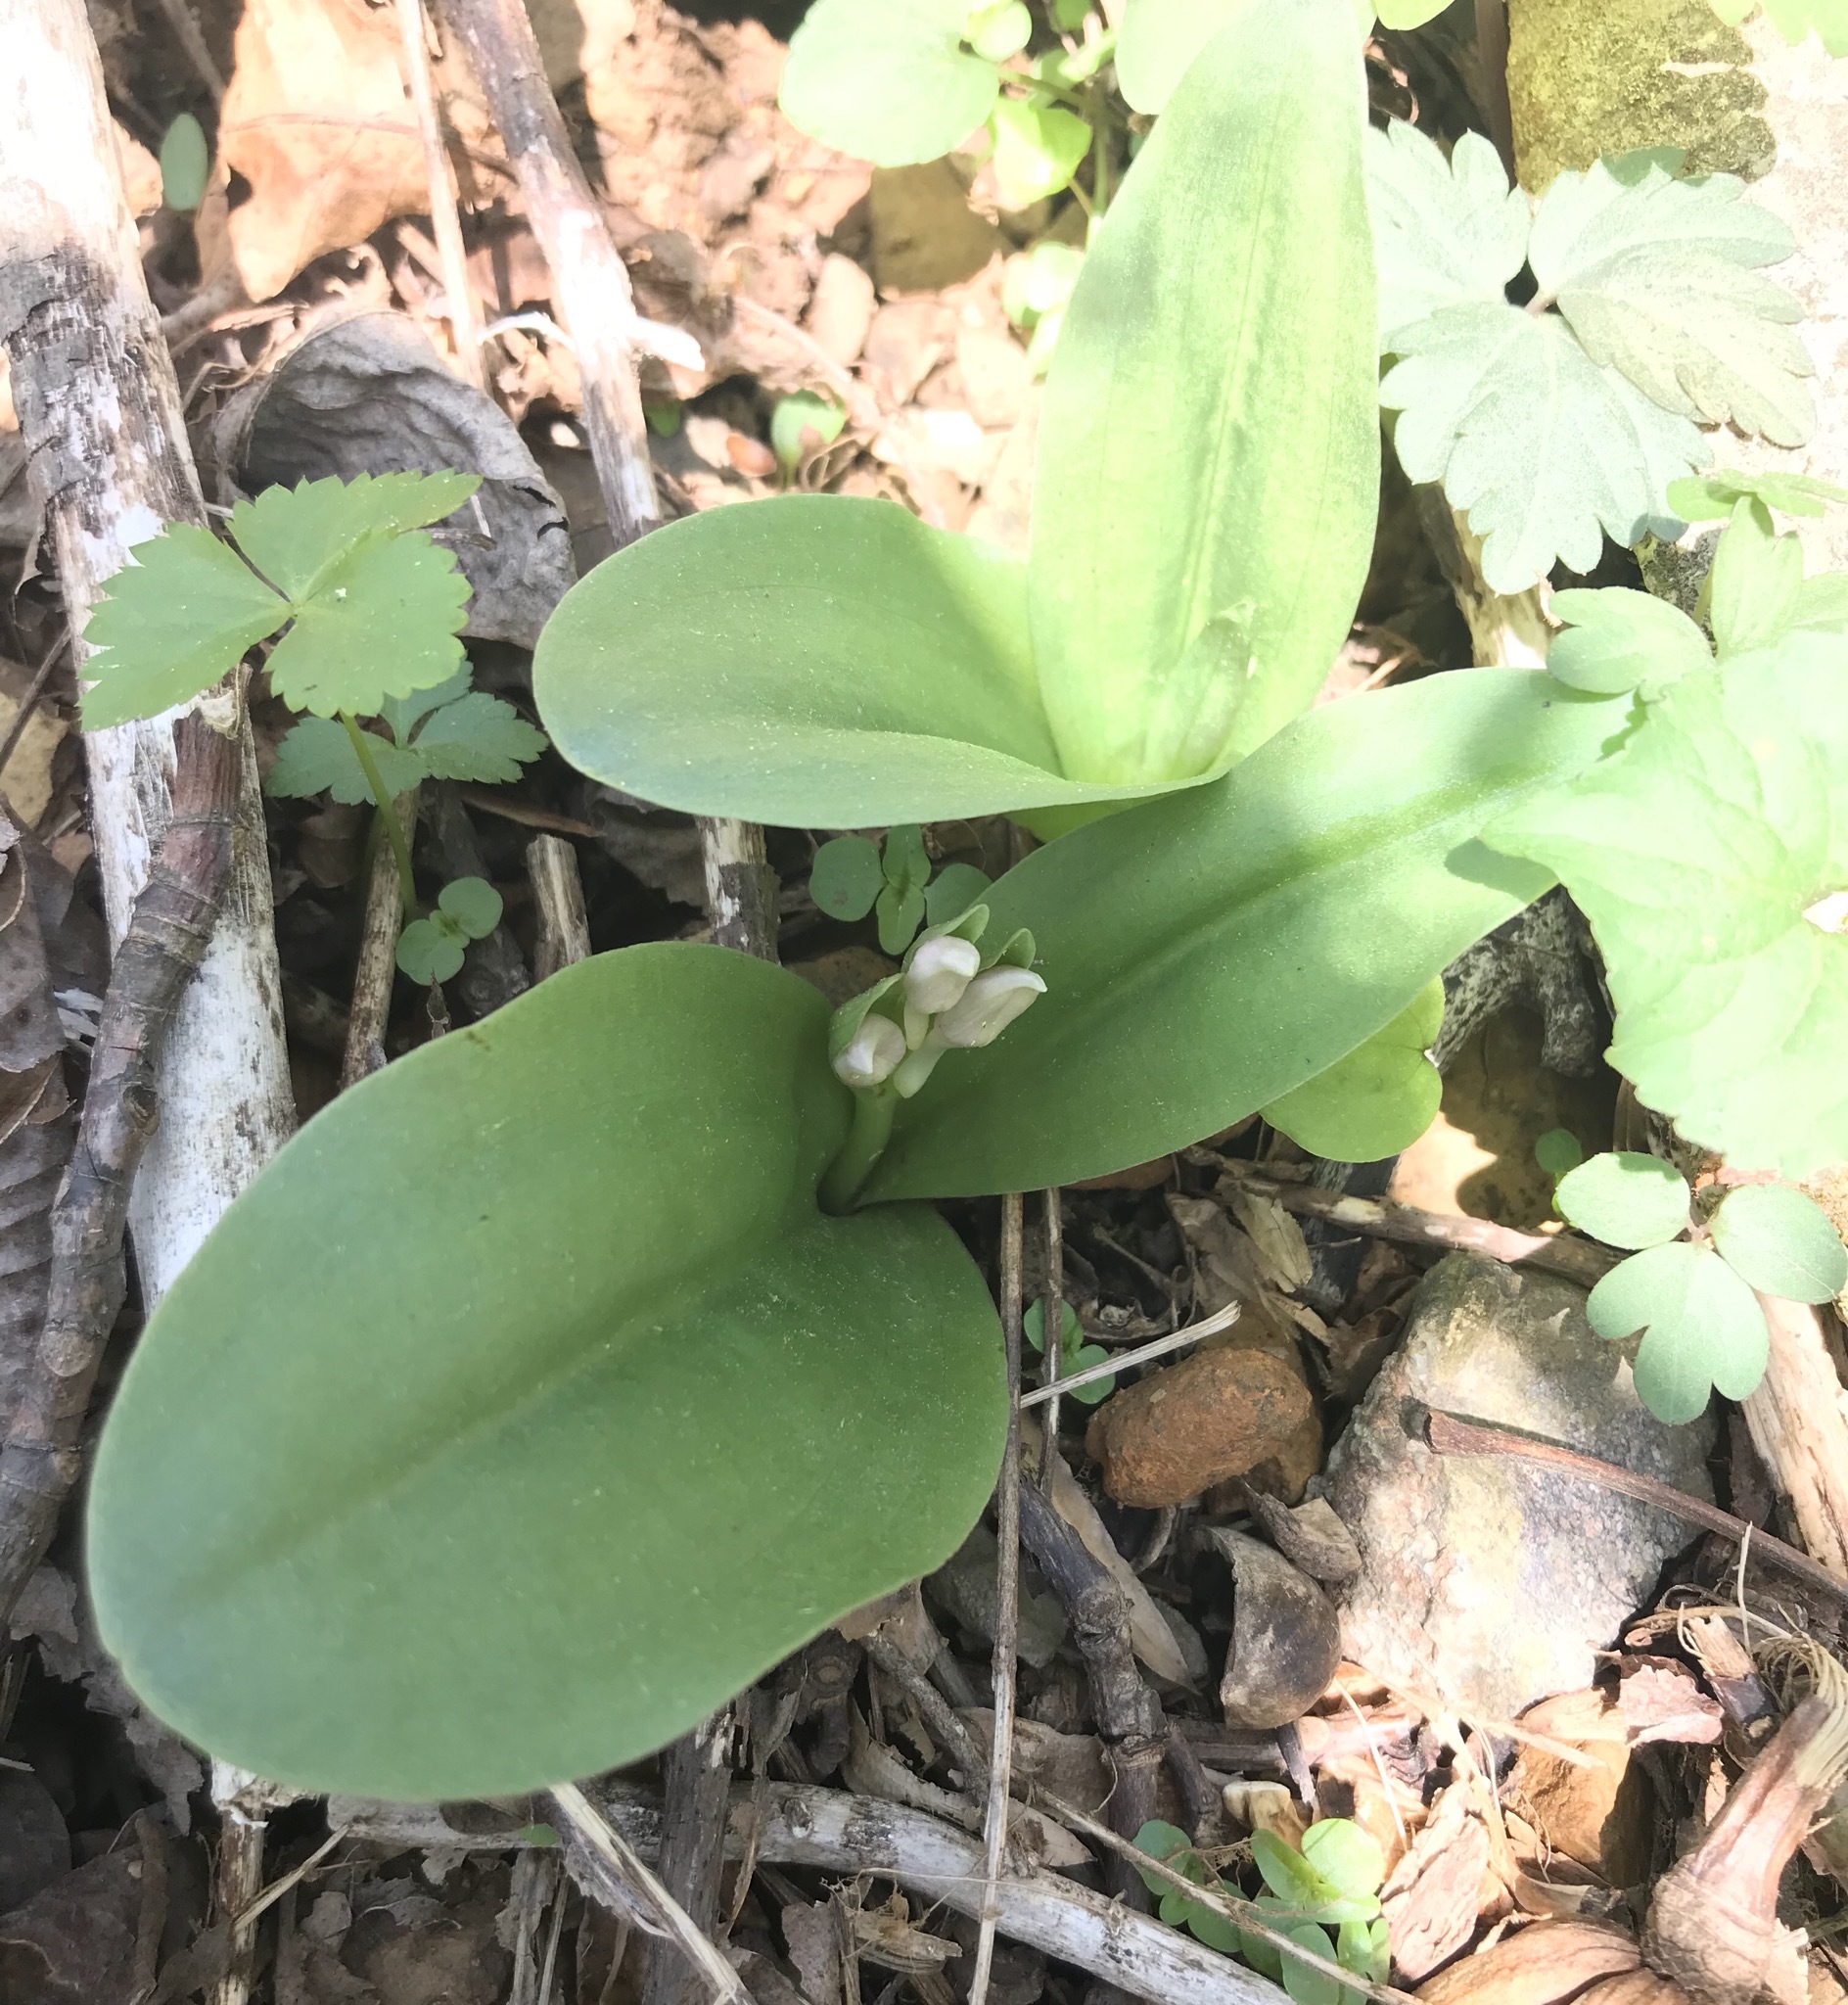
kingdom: Plantae
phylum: Tracheophyta
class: Liliopsida
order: Asparagales
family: Orchidaceae
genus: Galearis
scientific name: Galearis spectabilis
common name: Purple-hooded orchis
